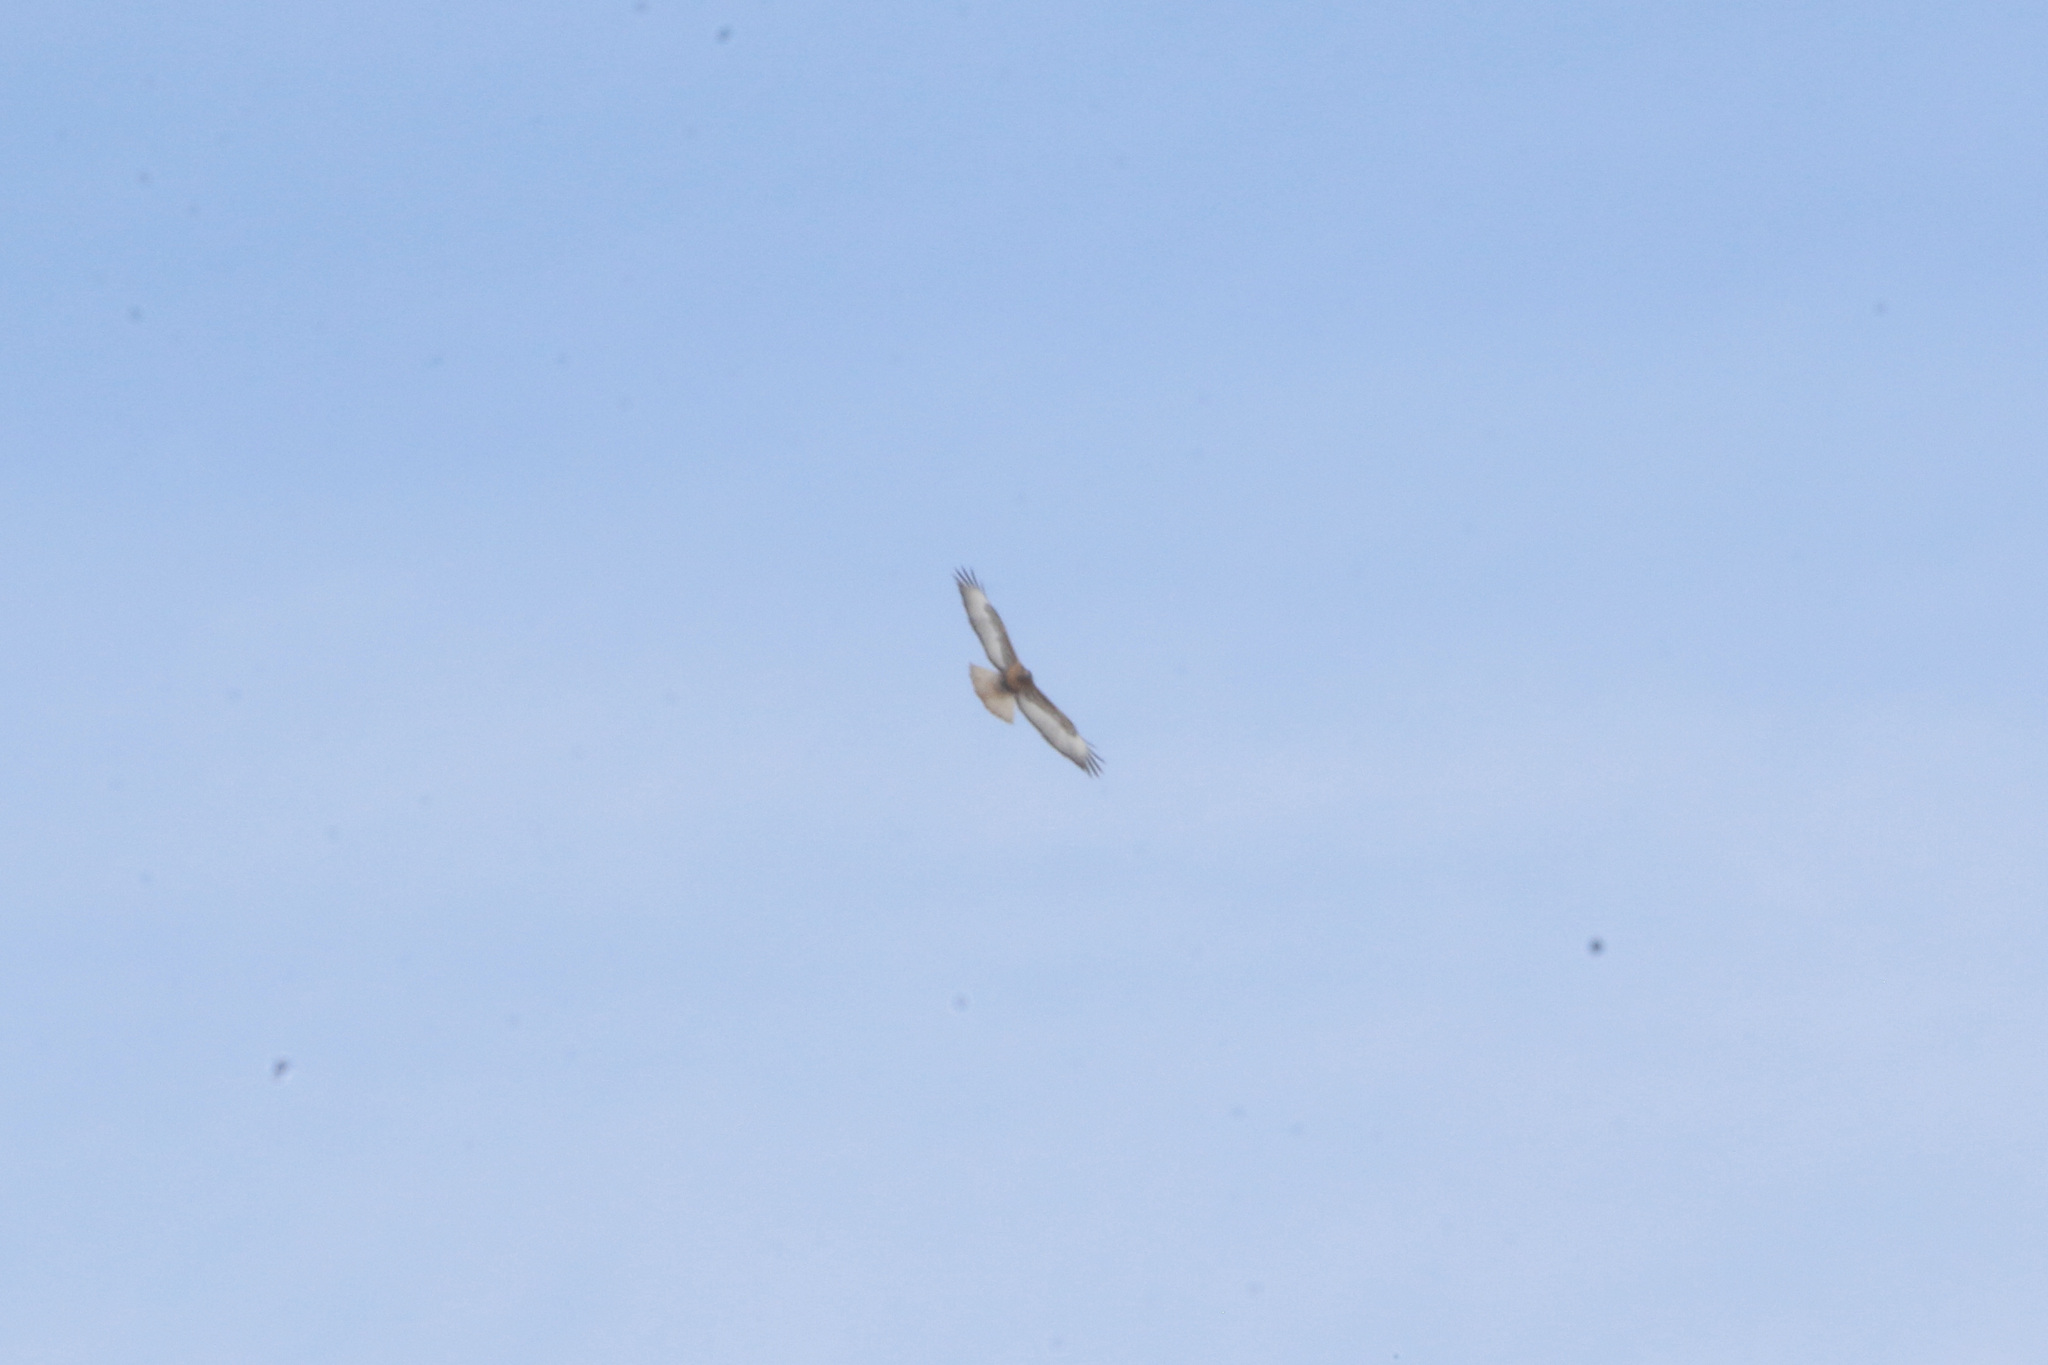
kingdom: Animalia
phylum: Chordata
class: Aves
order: Accipitriformes
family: Accipitridae
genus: Buteo
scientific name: Buteo jamaicensis
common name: Red-tailed hawk
